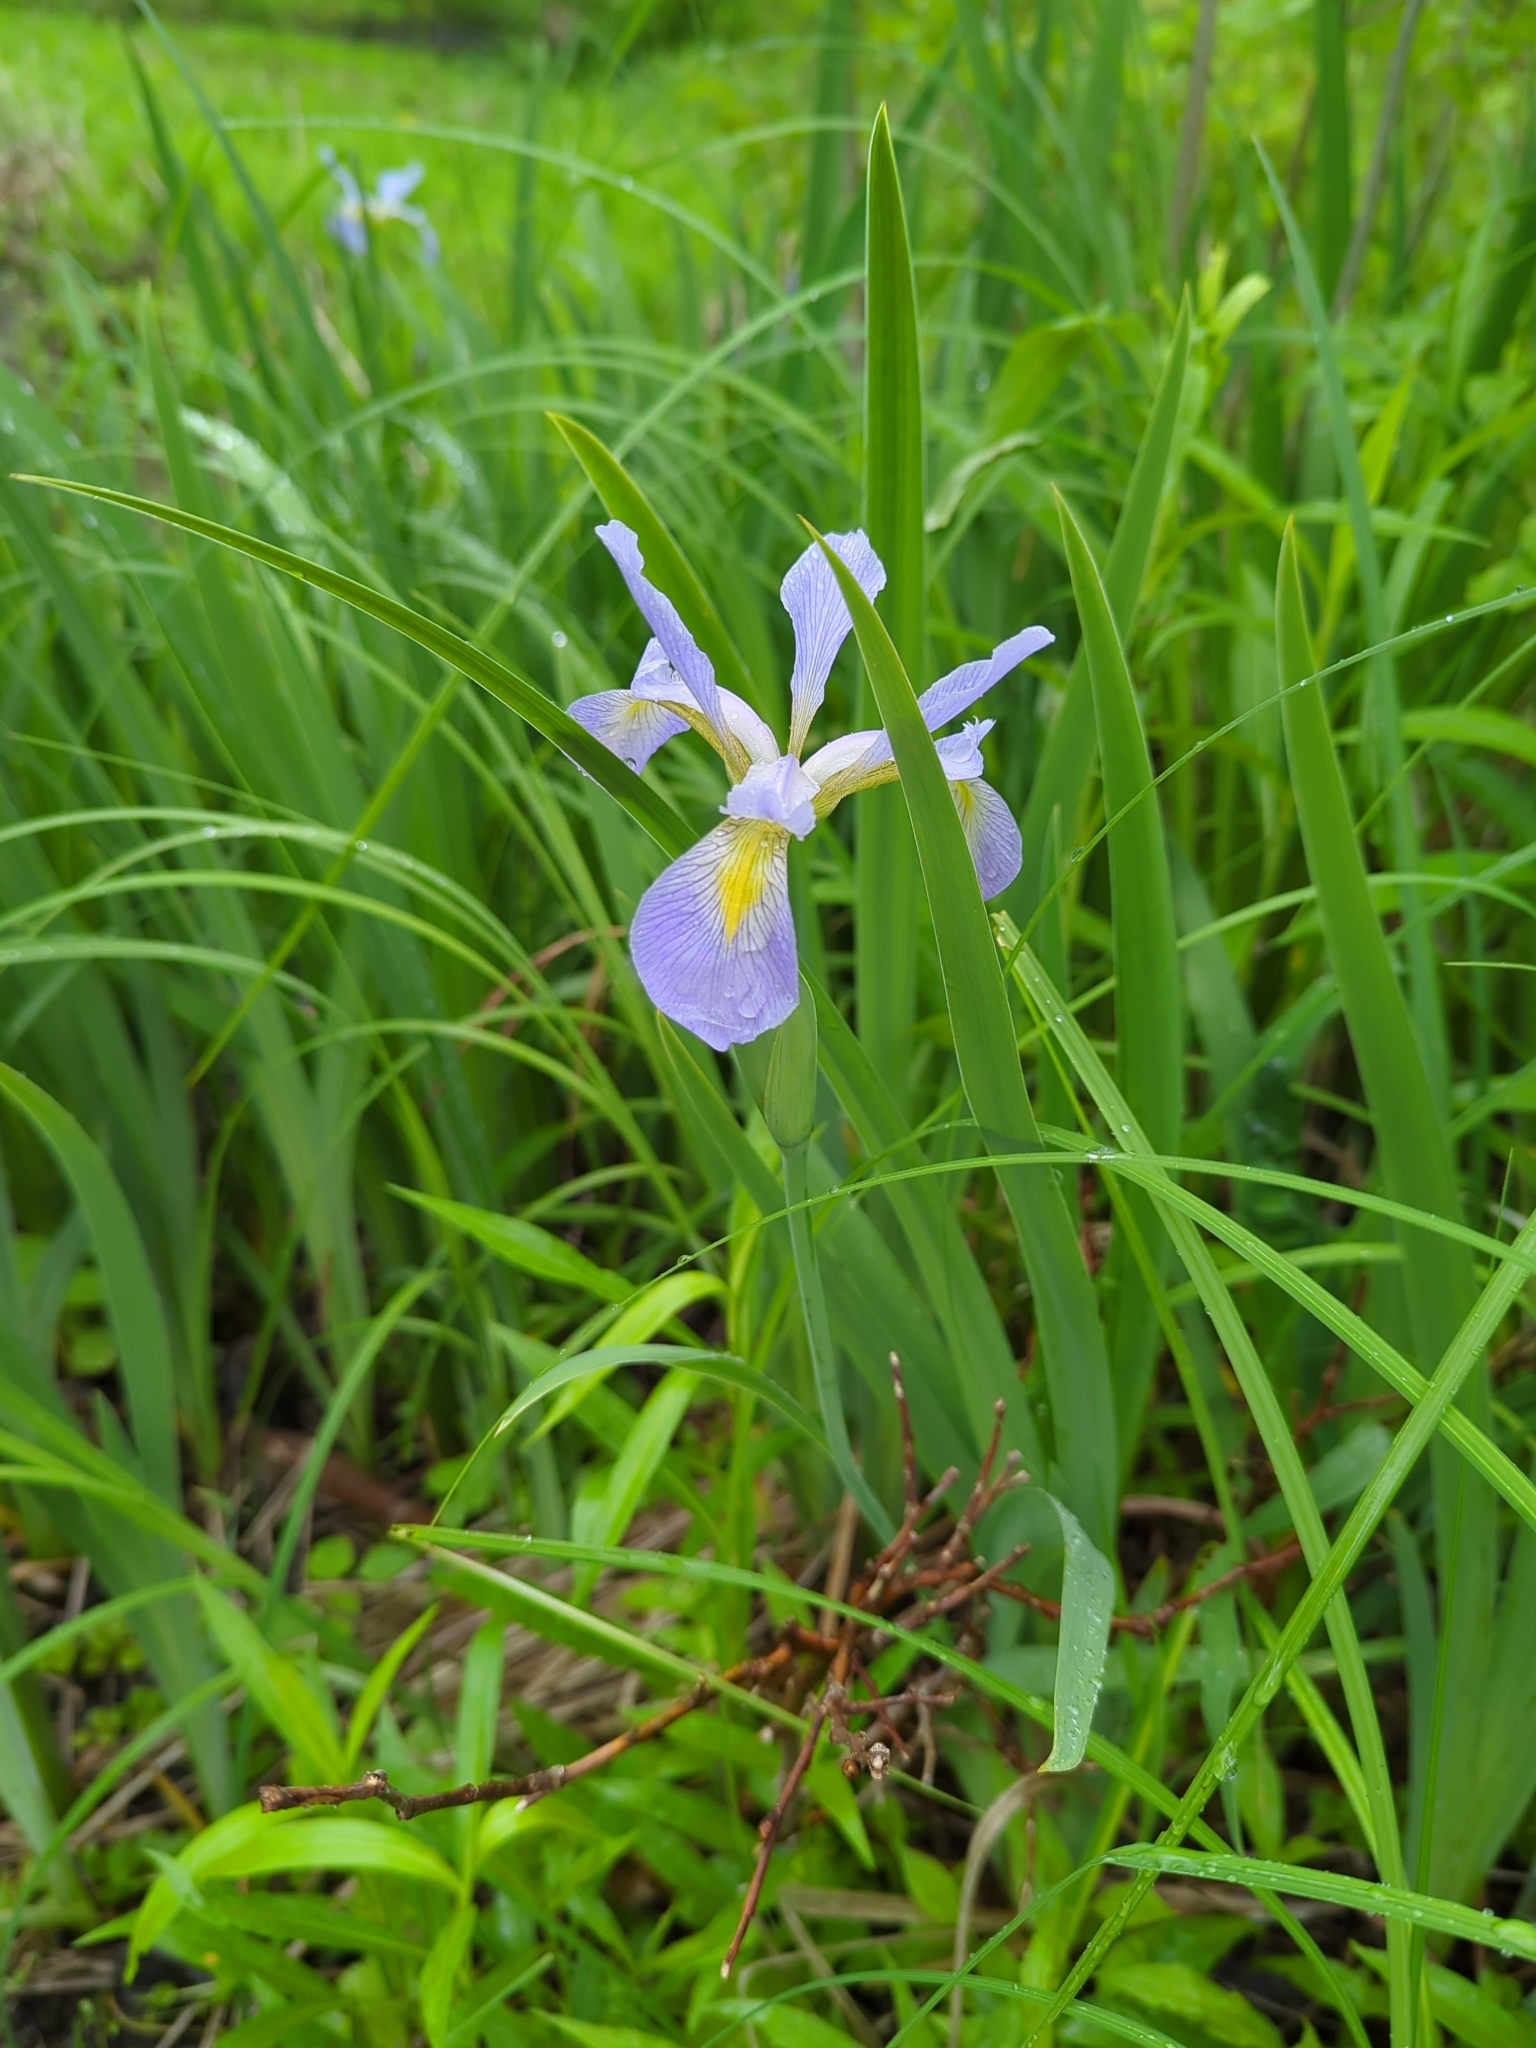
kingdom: Plantae
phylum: Tracheophyta
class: Liliopsida
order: Asparagales
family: Iridaceae
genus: Iris
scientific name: Iris virginica
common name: Southern blue flag
